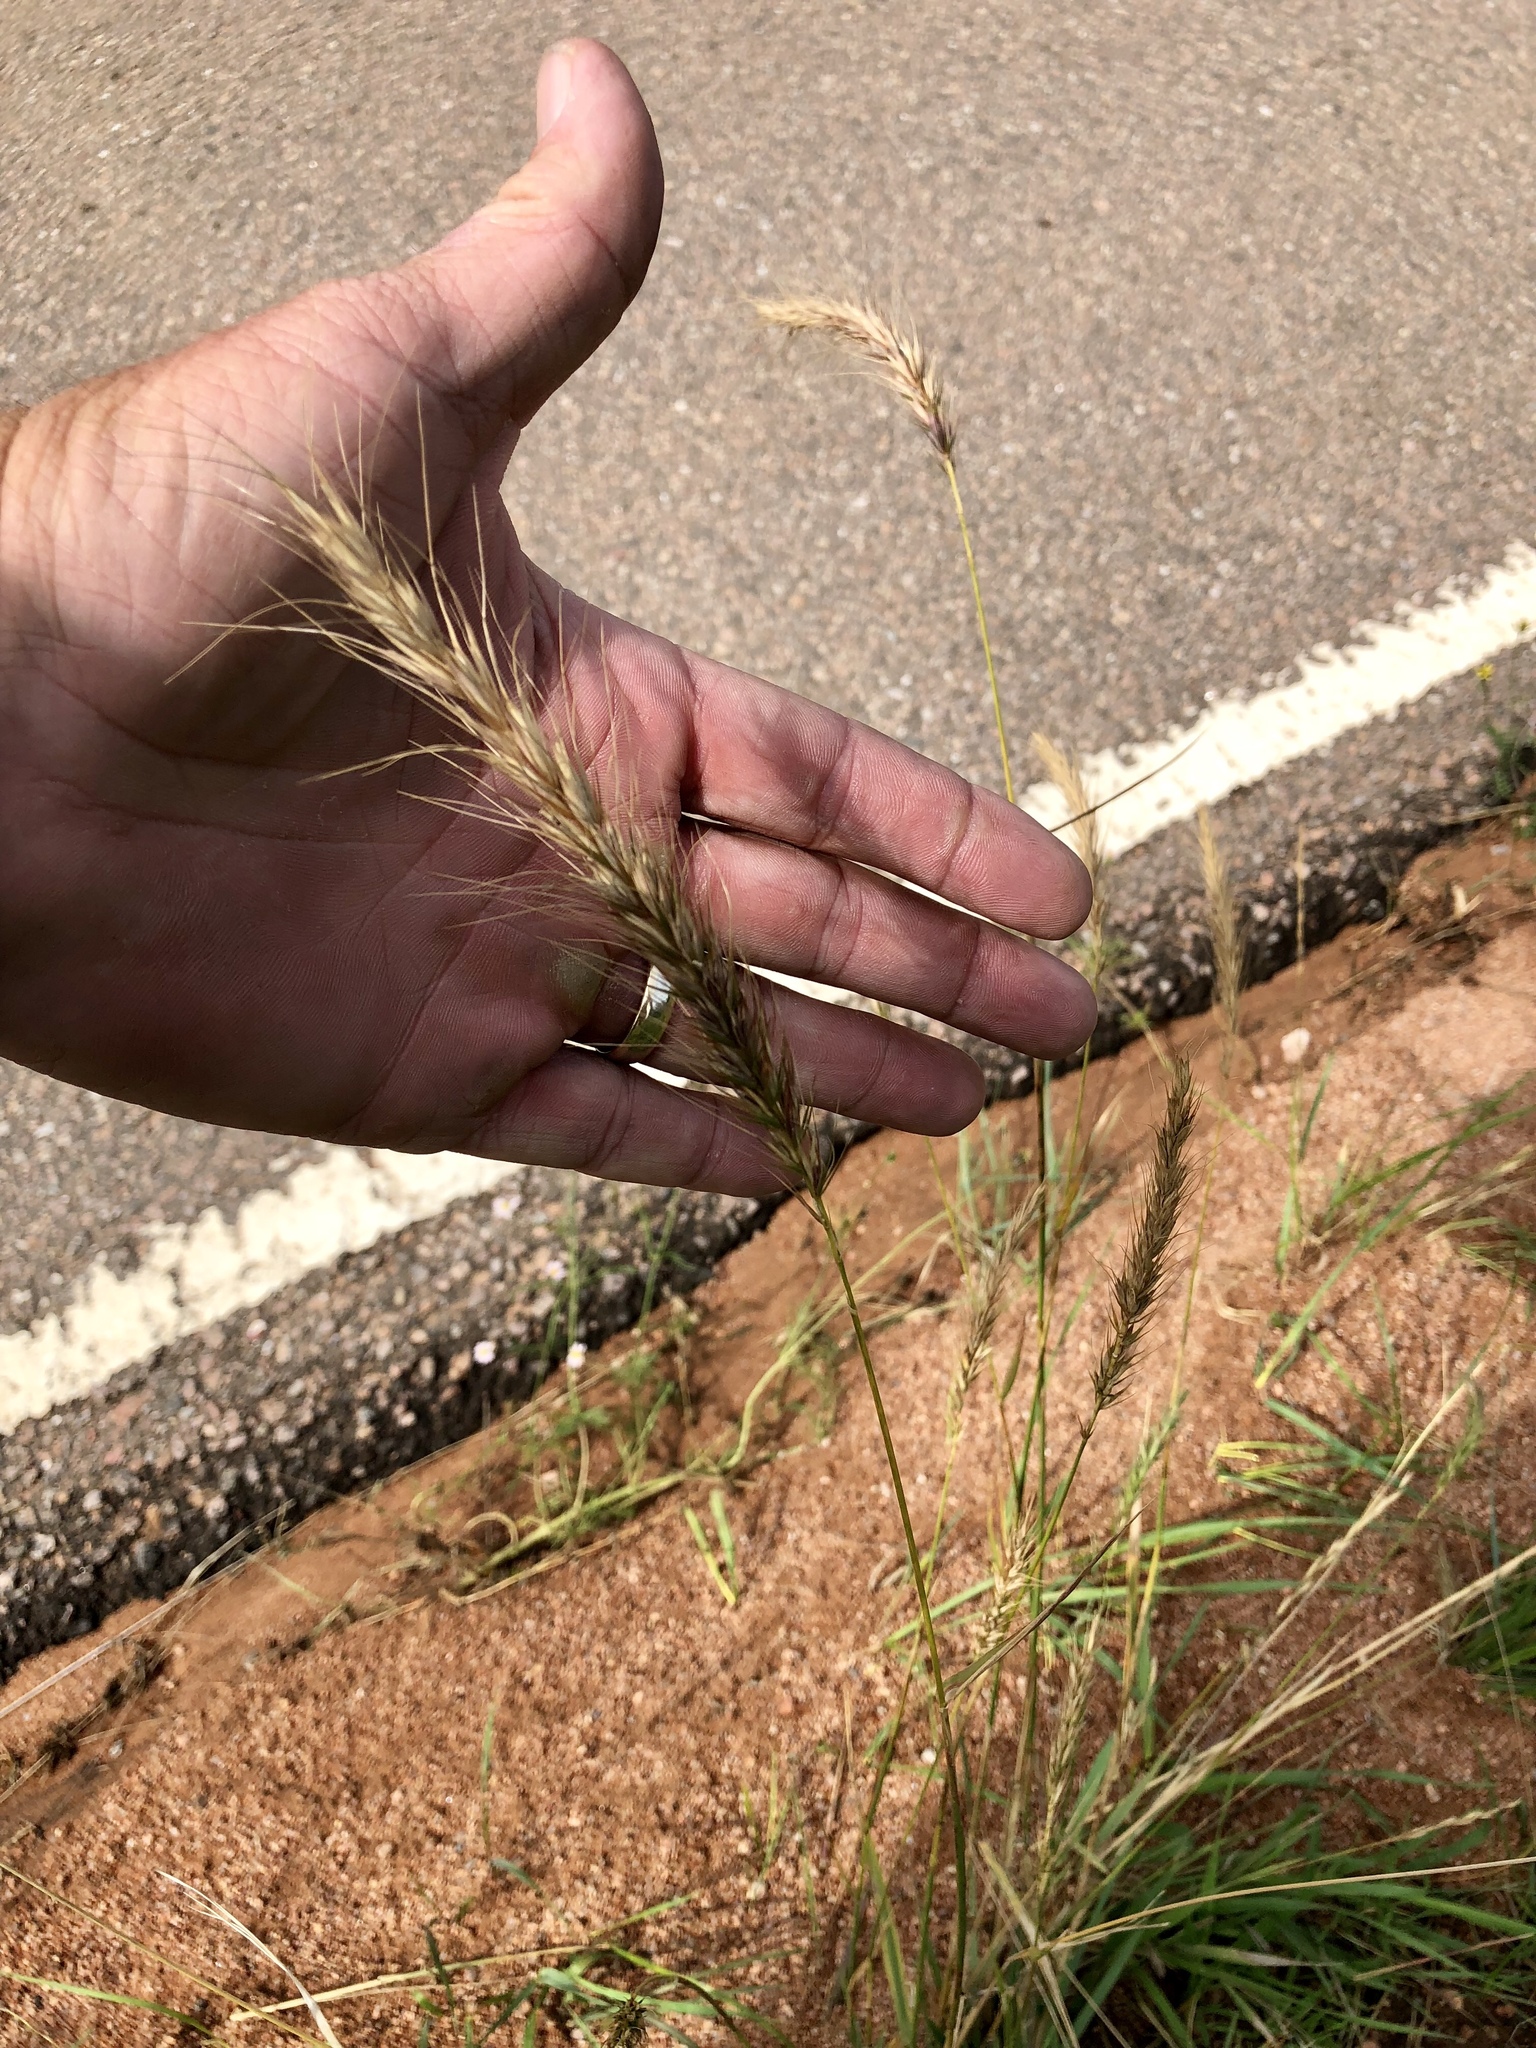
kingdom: Plantae
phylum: Tracheophyta
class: Liliopsida
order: Poales
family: Poaceae
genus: Elymus
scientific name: Elymus canadensis
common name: Canada wild rye
